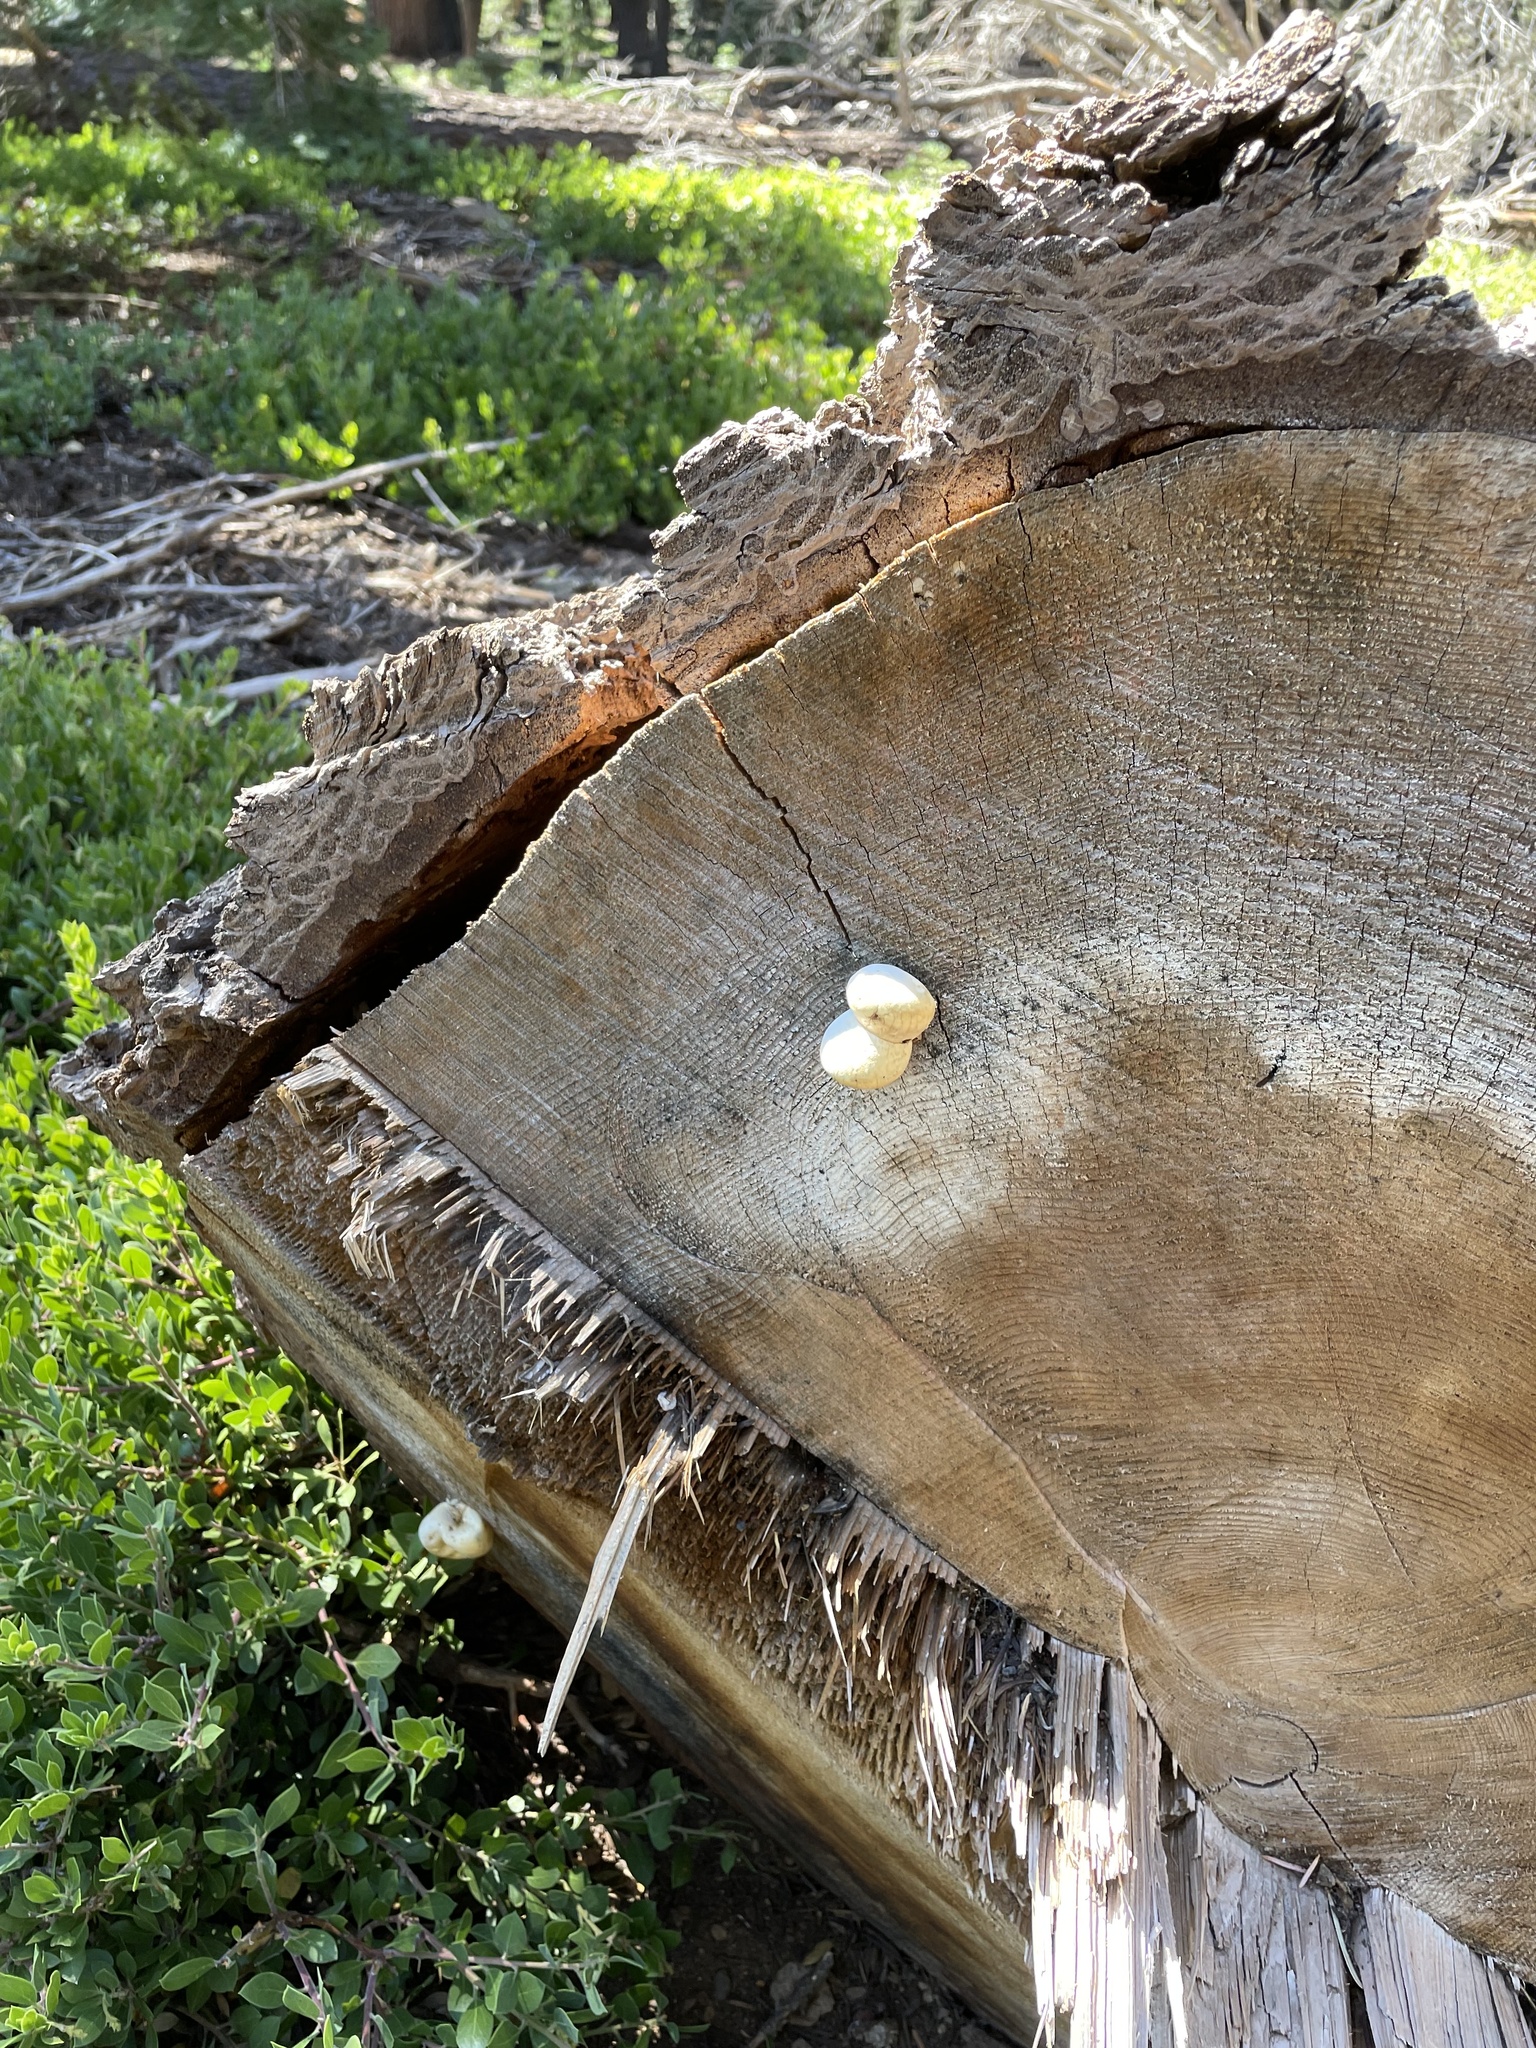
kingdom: Fungi
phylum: Basidiomycota
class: Agaricomycetes
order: Polyporales
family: Polyporaceae
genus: Cryptoporus
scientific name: Cryptoporus volvatus
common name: Veiled polypore
